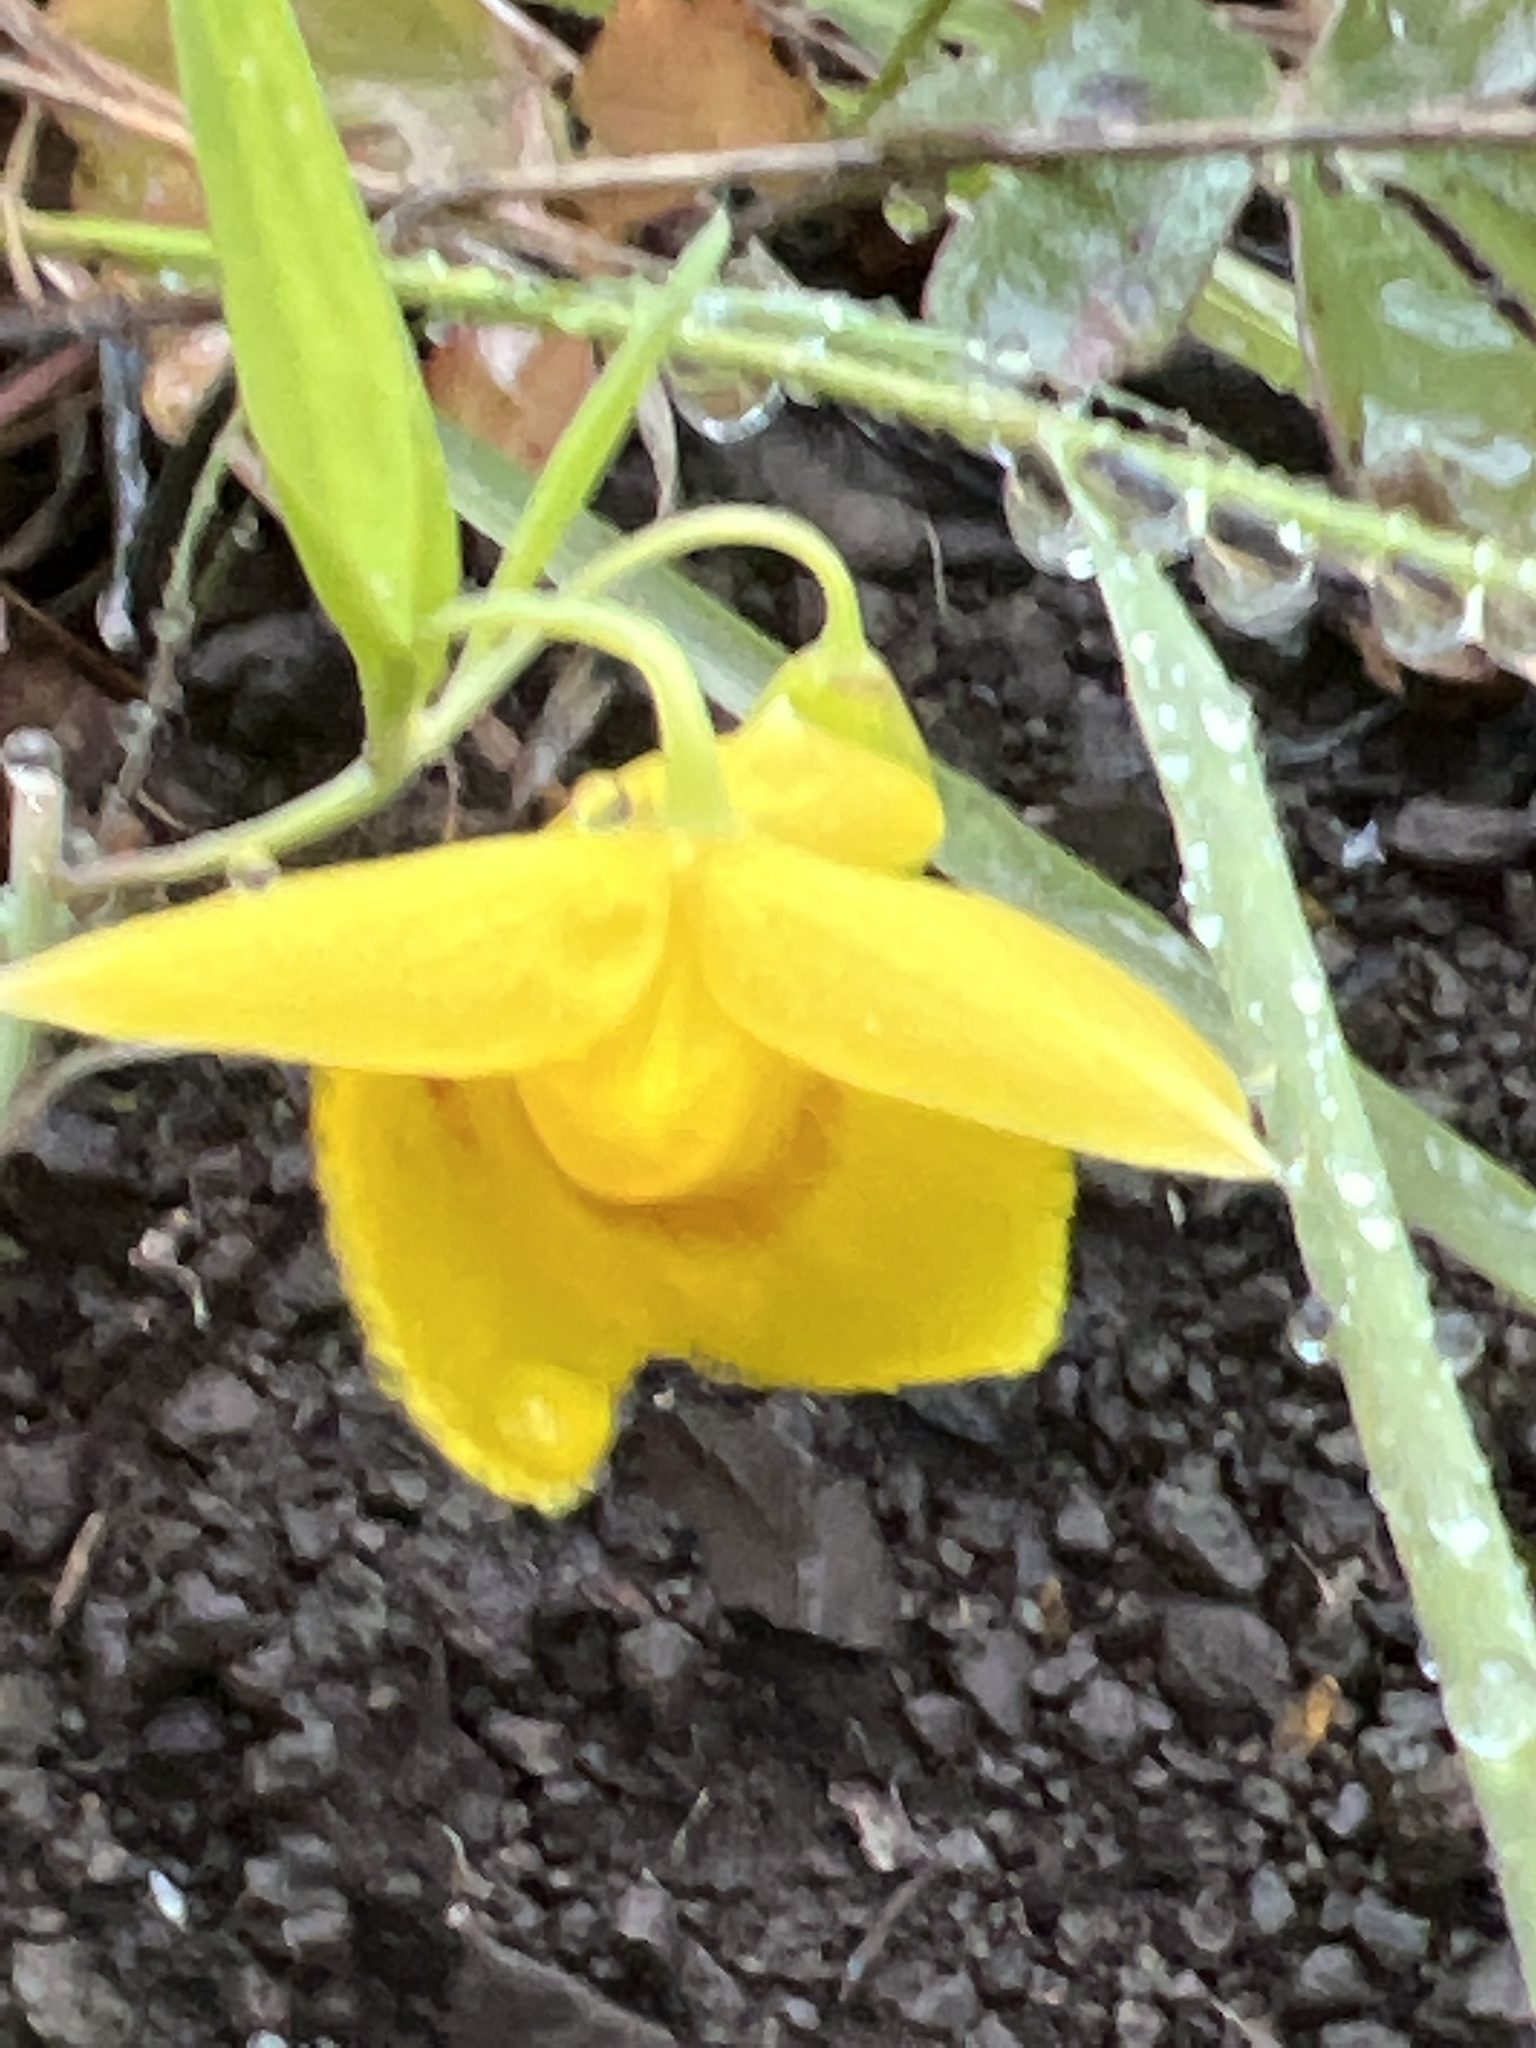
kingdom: Plantae
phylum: Tracheophyta
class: Liliopsida
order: Liliales
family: Liliaceae
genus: Calochortus
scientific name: Calochortus amabilis
